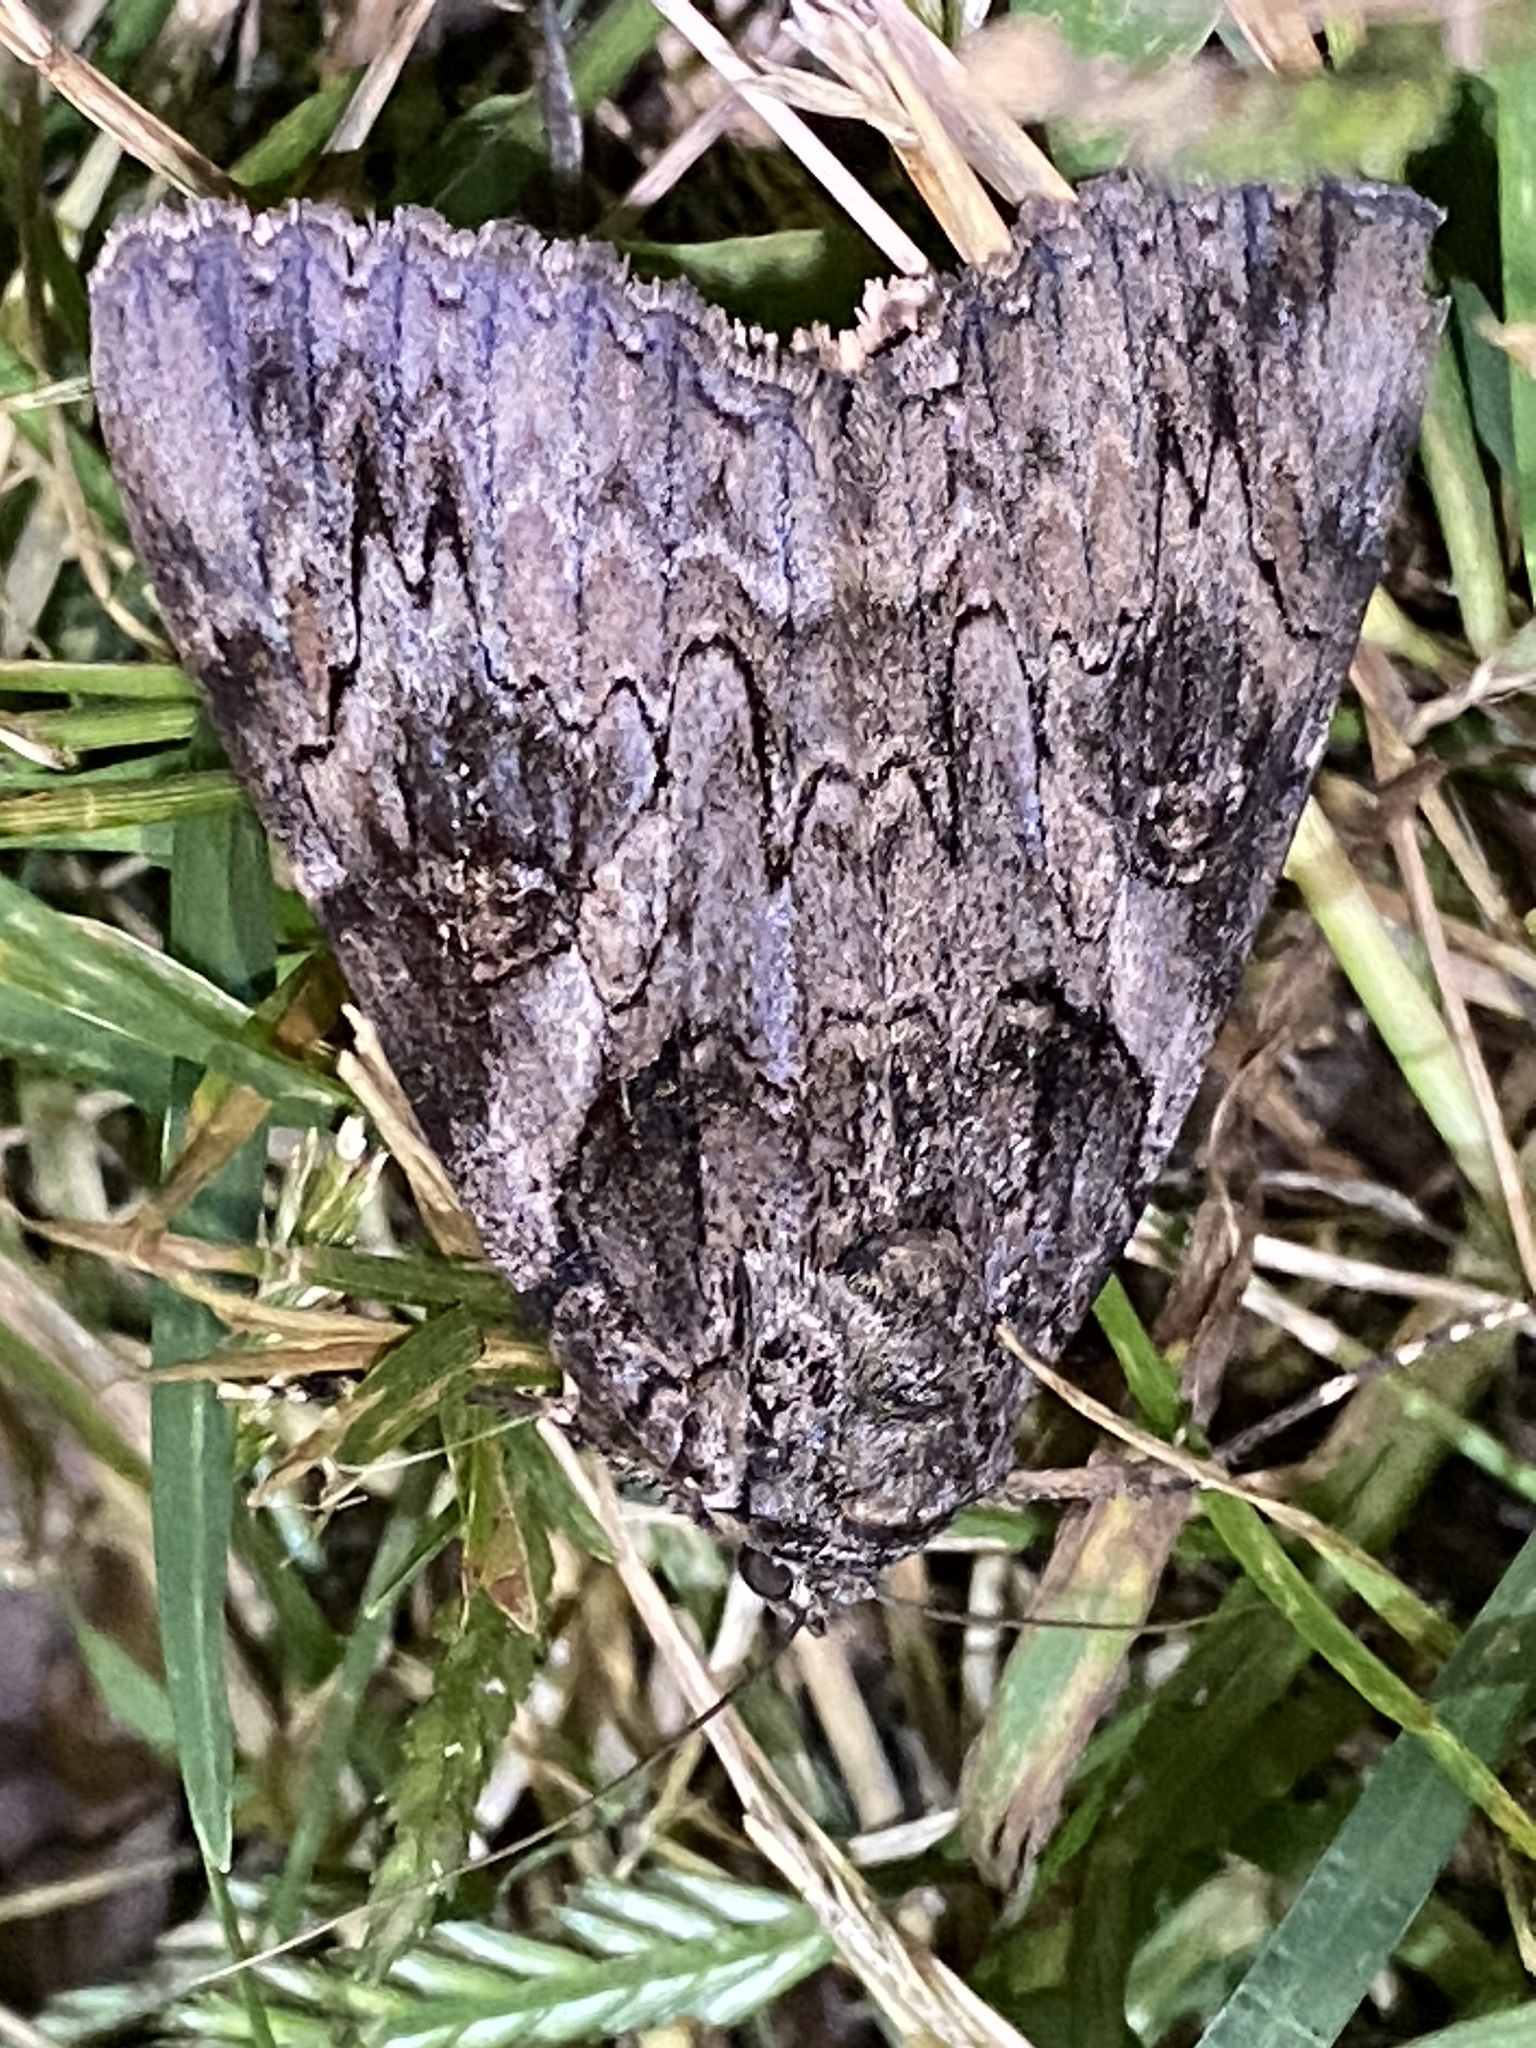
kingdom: Animalia
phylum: Arthropoda
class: Insecta
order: Lepidoptera
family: Erebidae
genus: Catocala
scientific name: Catocala piatrix
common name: The penitent underwing
